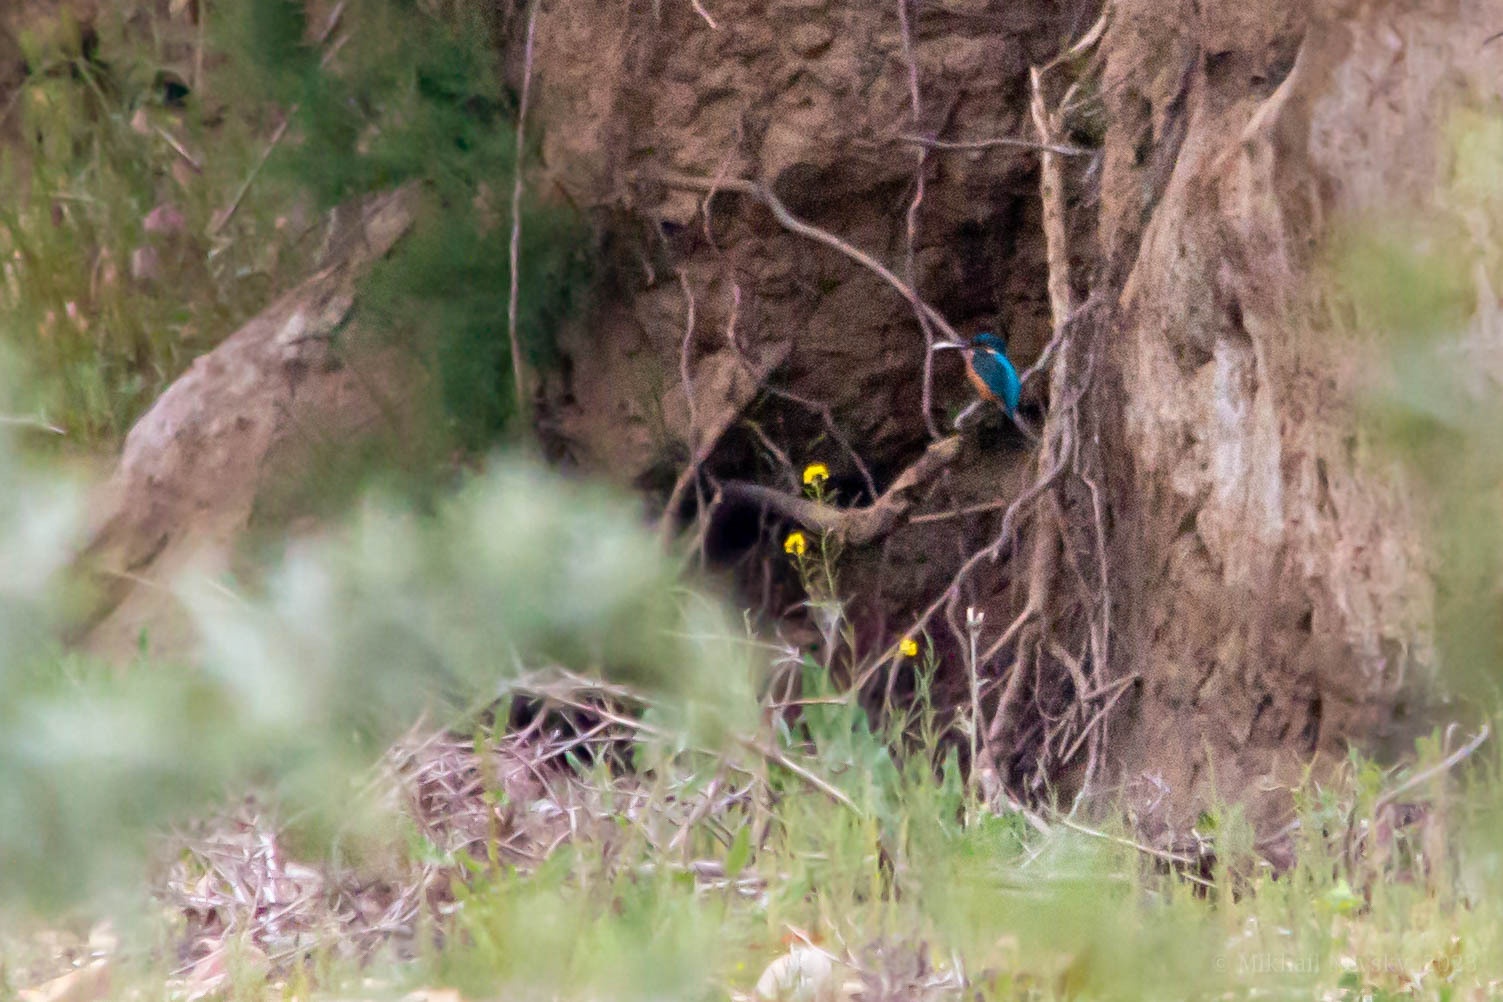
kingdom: Animalia
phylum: Chordata
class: Aves
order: Coraciiformes
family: Alcedinidae
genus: Alcedo
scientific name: Alcedo atthis
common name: Common kingfisher
